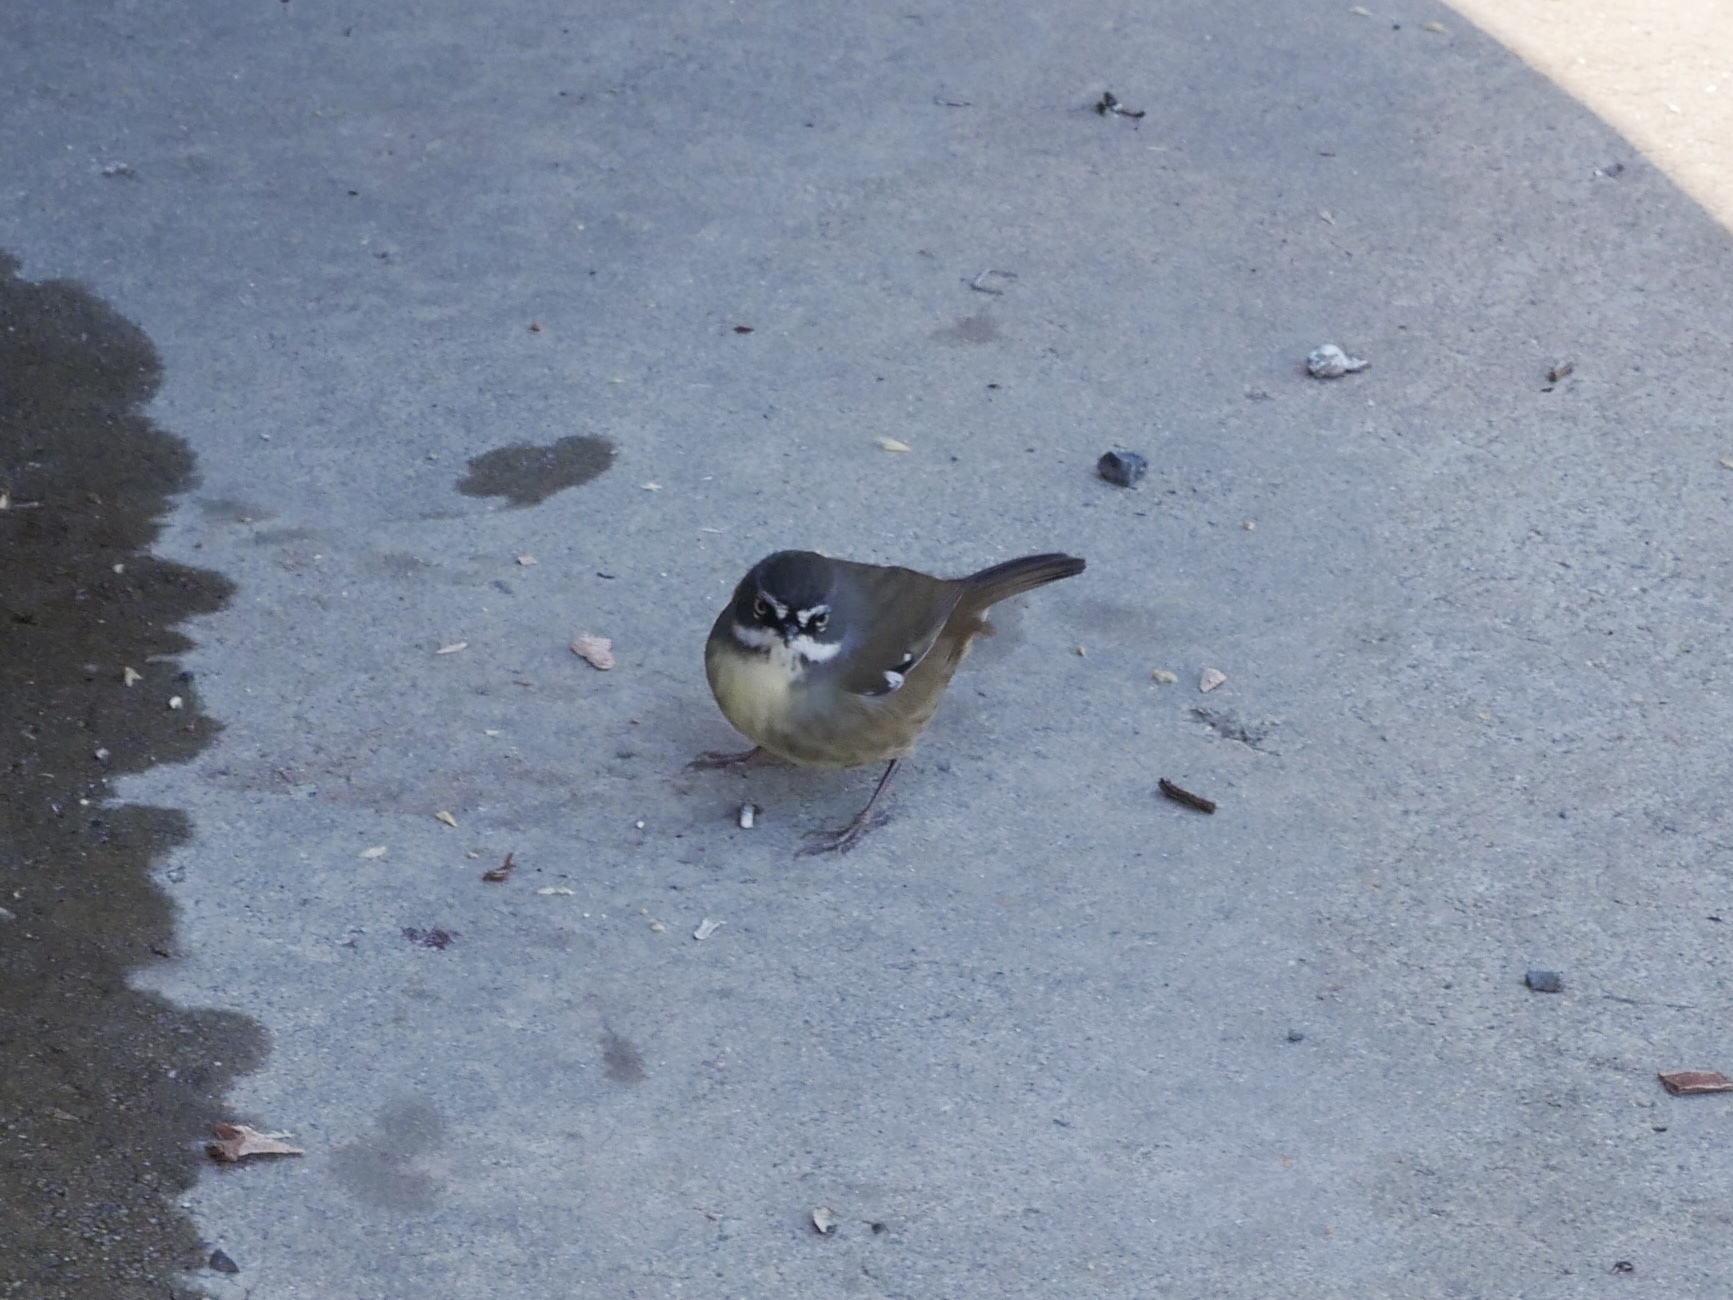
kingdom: Animalia
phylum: Chordata
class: Aves
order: Passeriformes
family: Acanthizidae
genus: Sericornis
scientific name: Sericornis frontalis
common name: White-browed scrubwren
